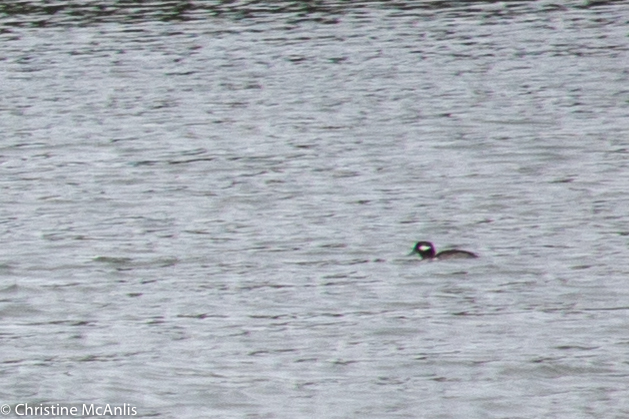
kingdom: Animalia
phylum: Chordata
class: Aves
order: Anseriformes
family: Anatidae
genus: Bucephala
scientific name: Bucephala albeola
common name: Bufflehead
